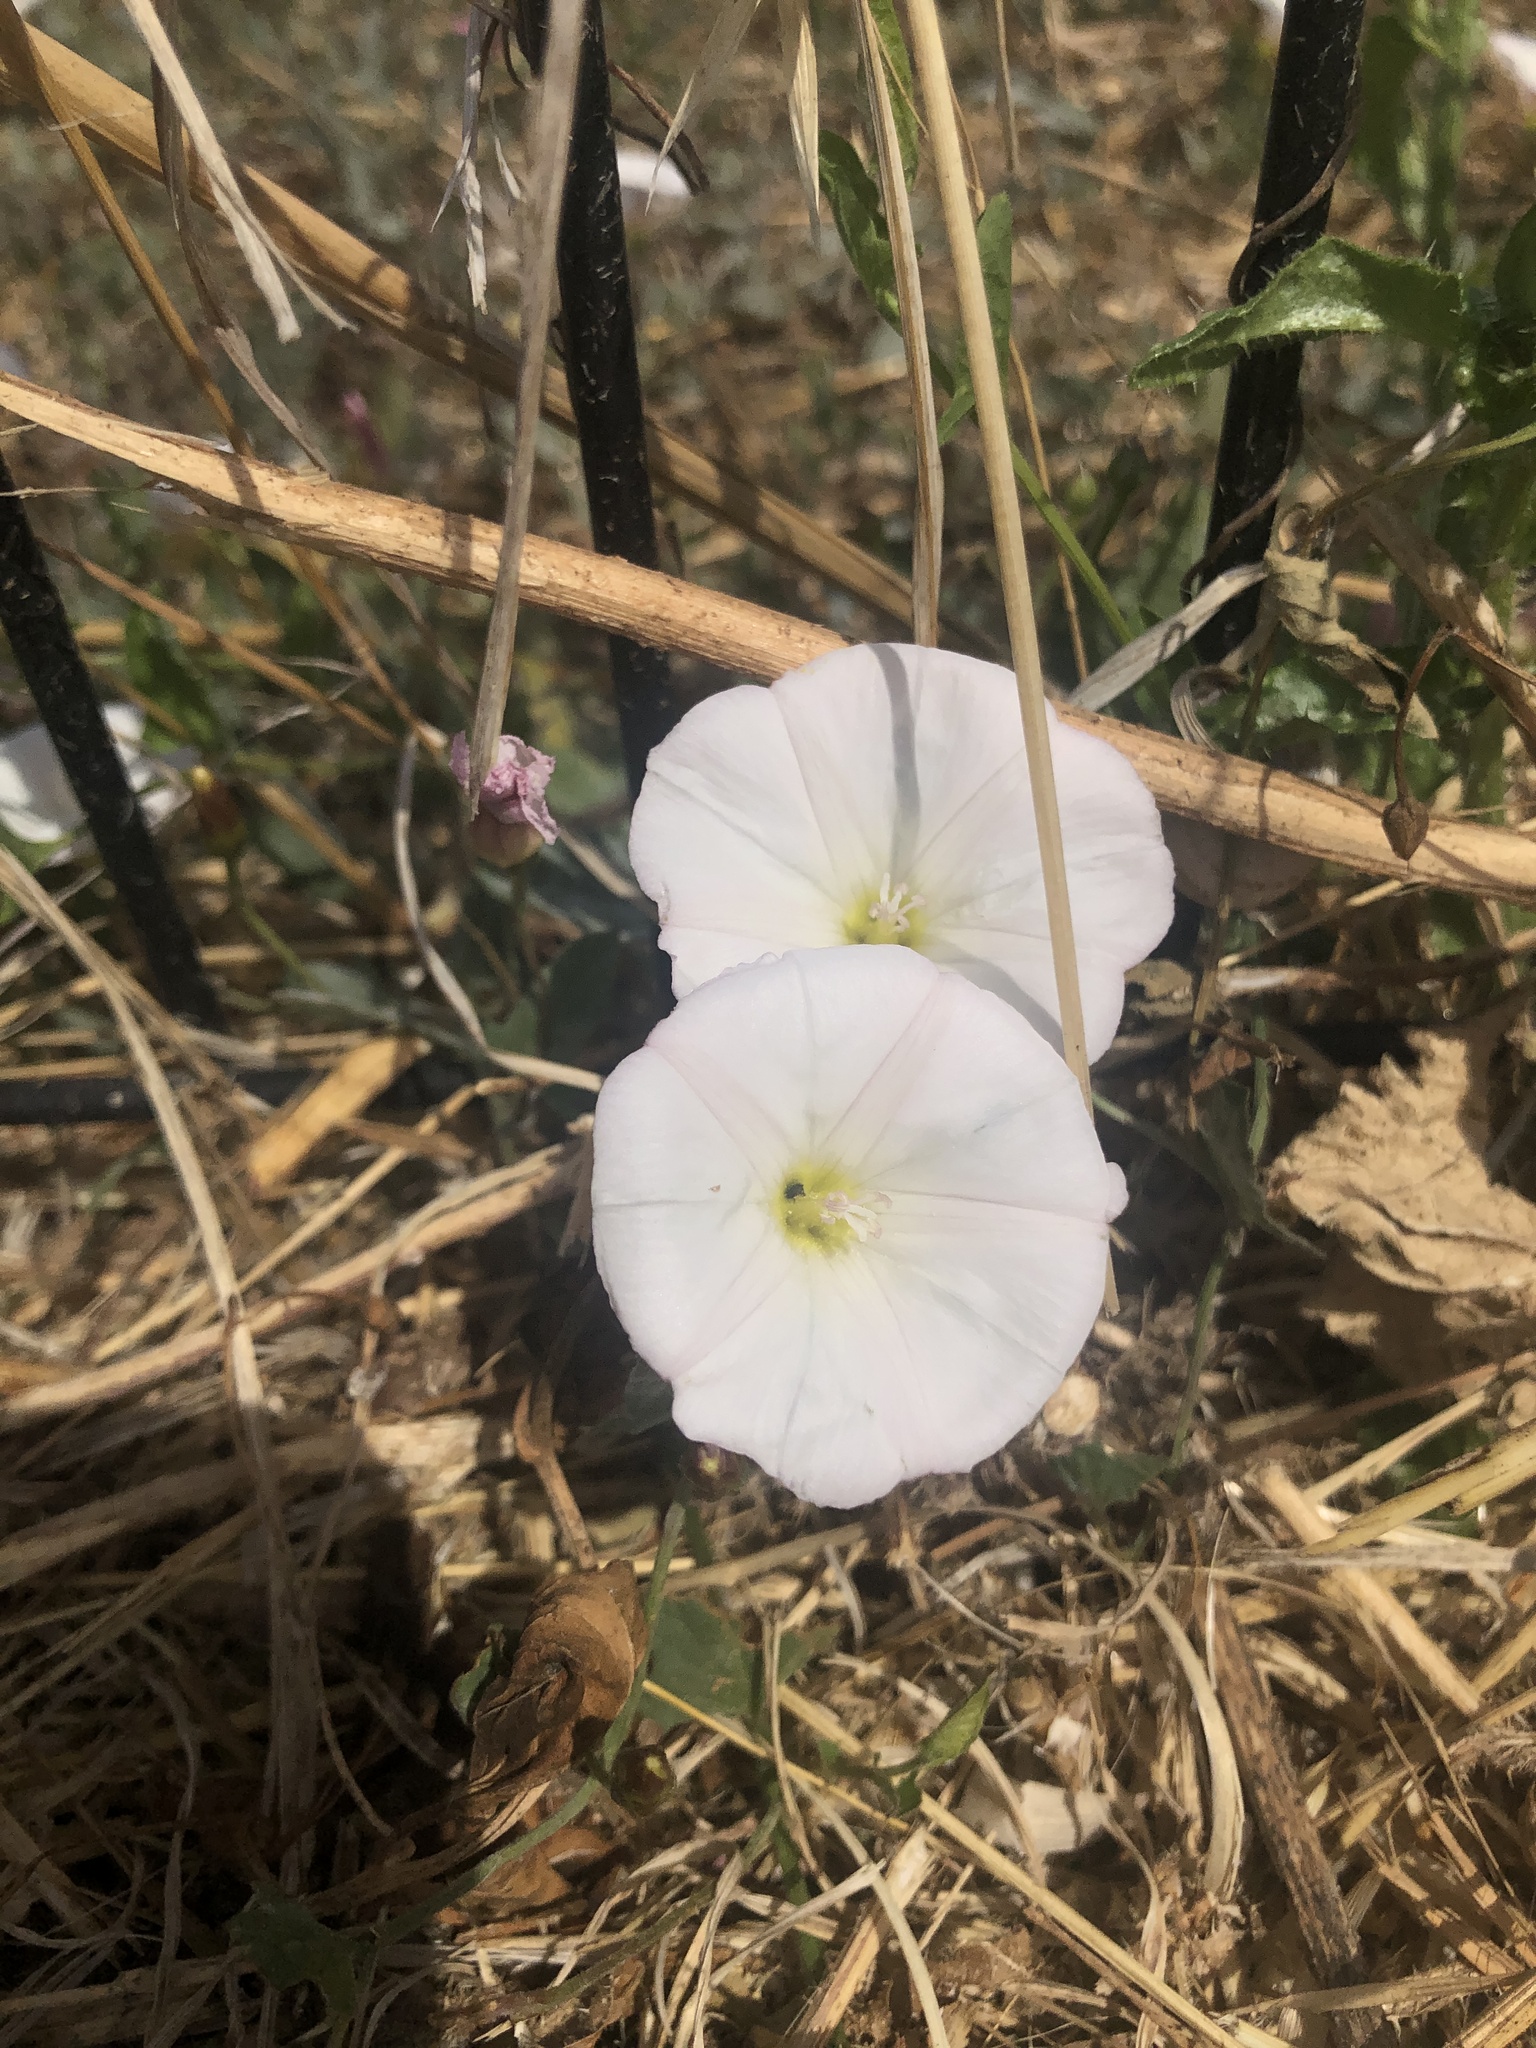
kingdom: Plantae
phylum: Tracheophyta
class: Magnoliopsida
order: Solanales
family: Convolvulaceae
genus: Convolvulus
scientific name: Convolvulus arvensis
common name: Field bindweed
